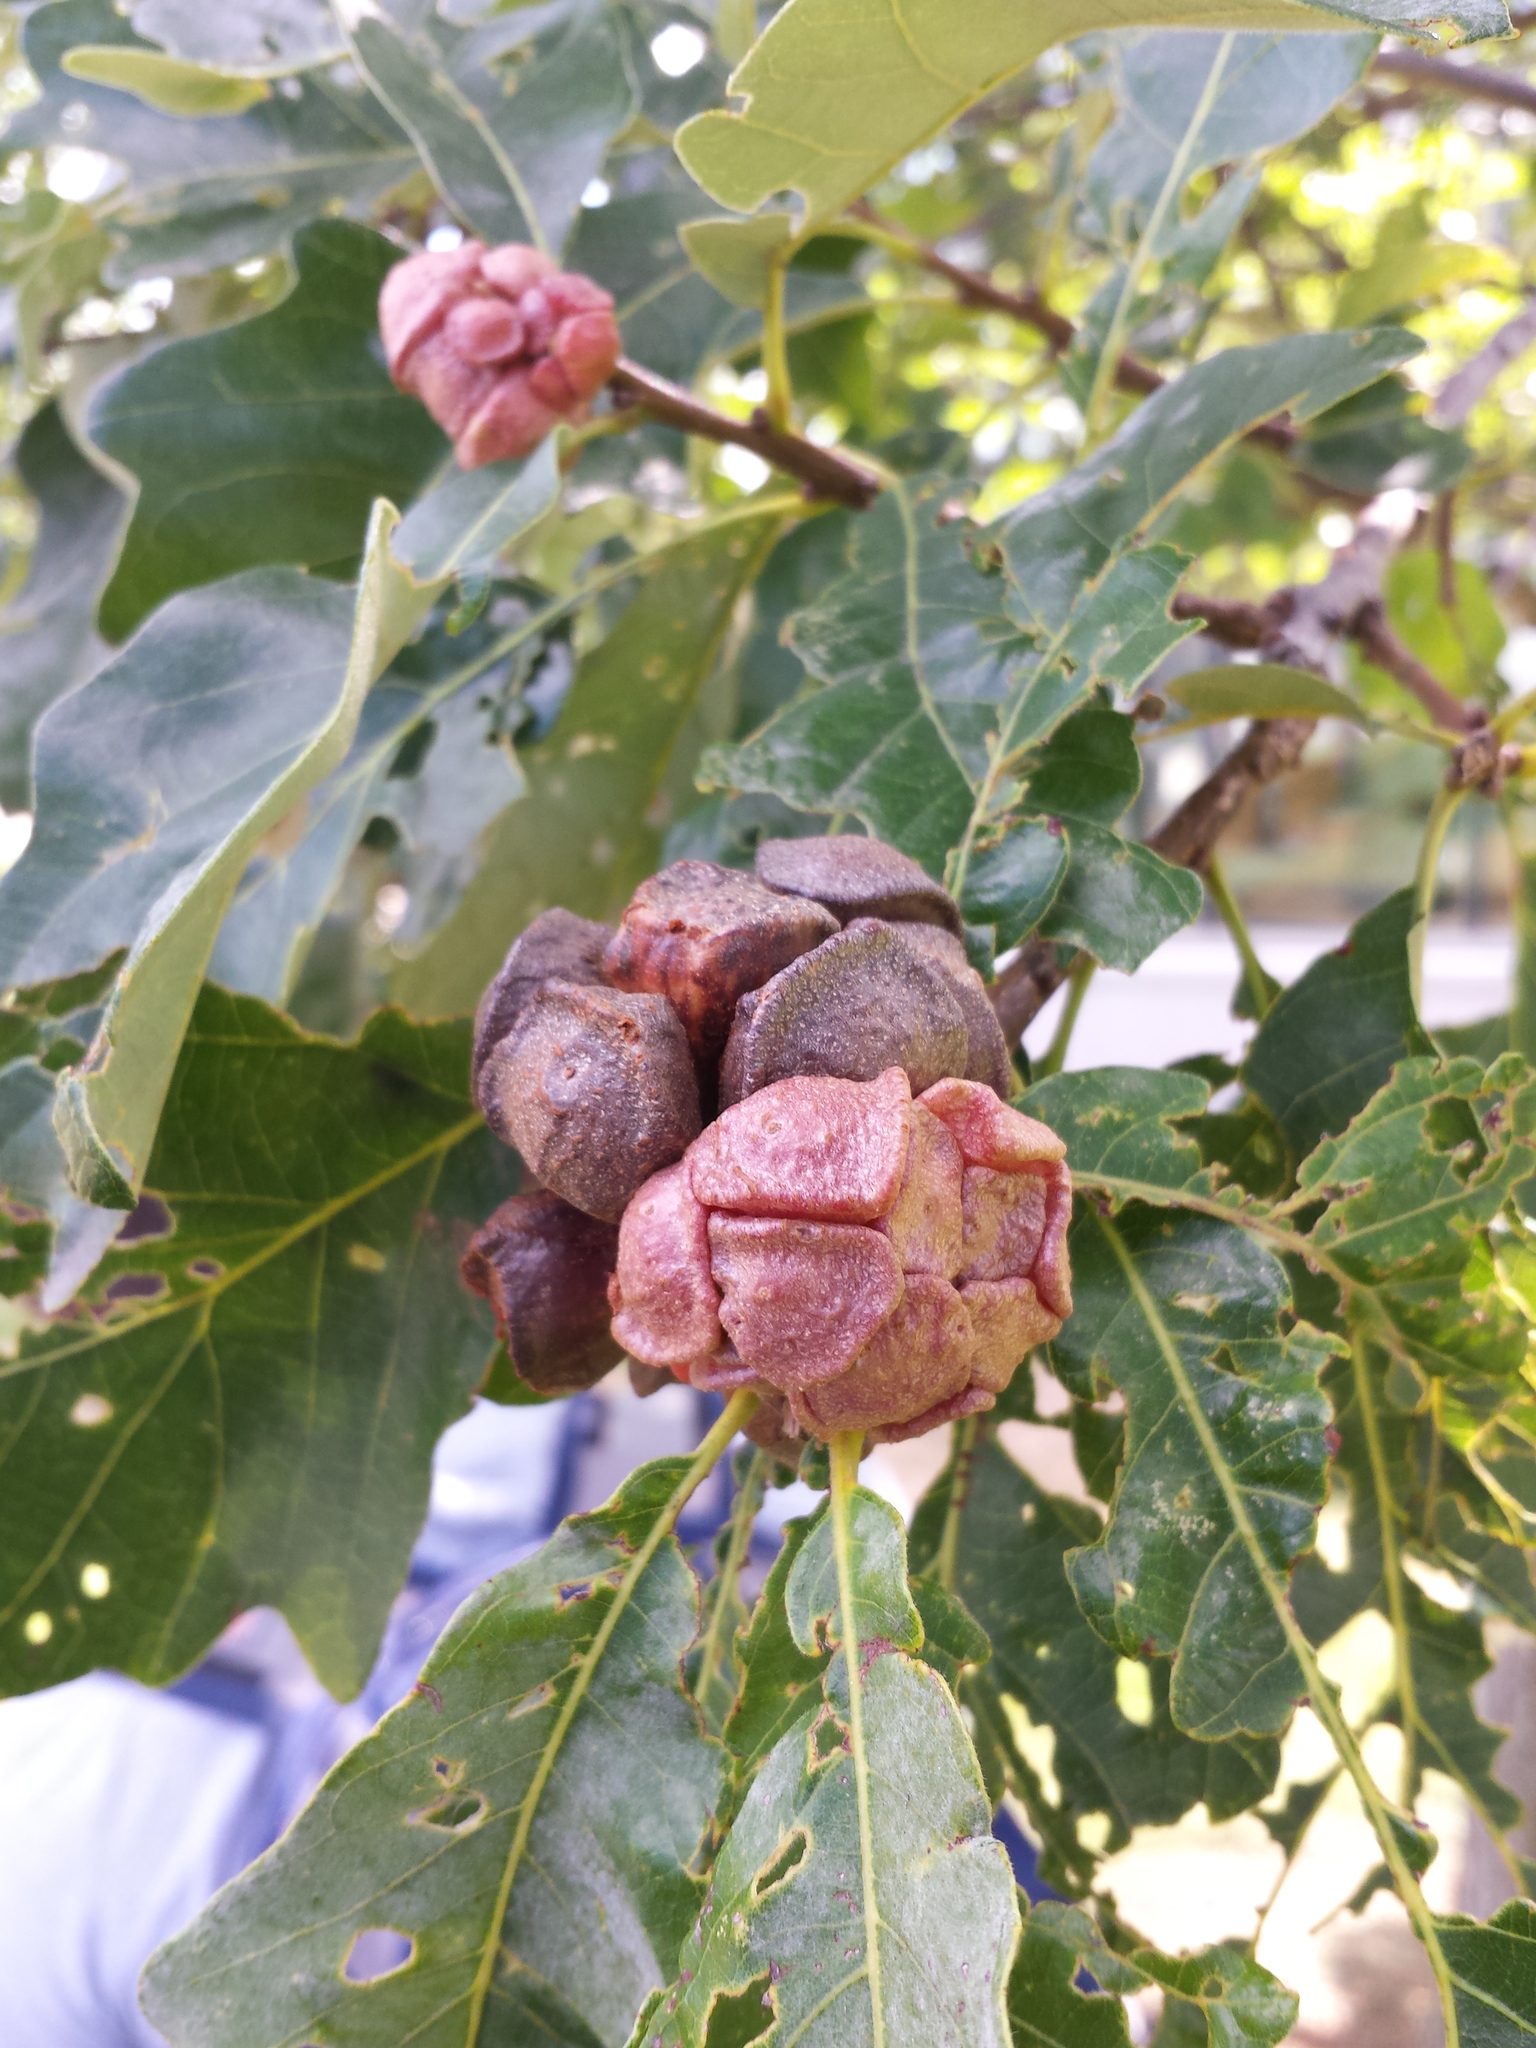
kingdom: Animalia
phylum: Arthropoda
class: Insecta
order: Hymenoptera
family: Cynipidae
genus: Andricus
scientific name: Andricus
